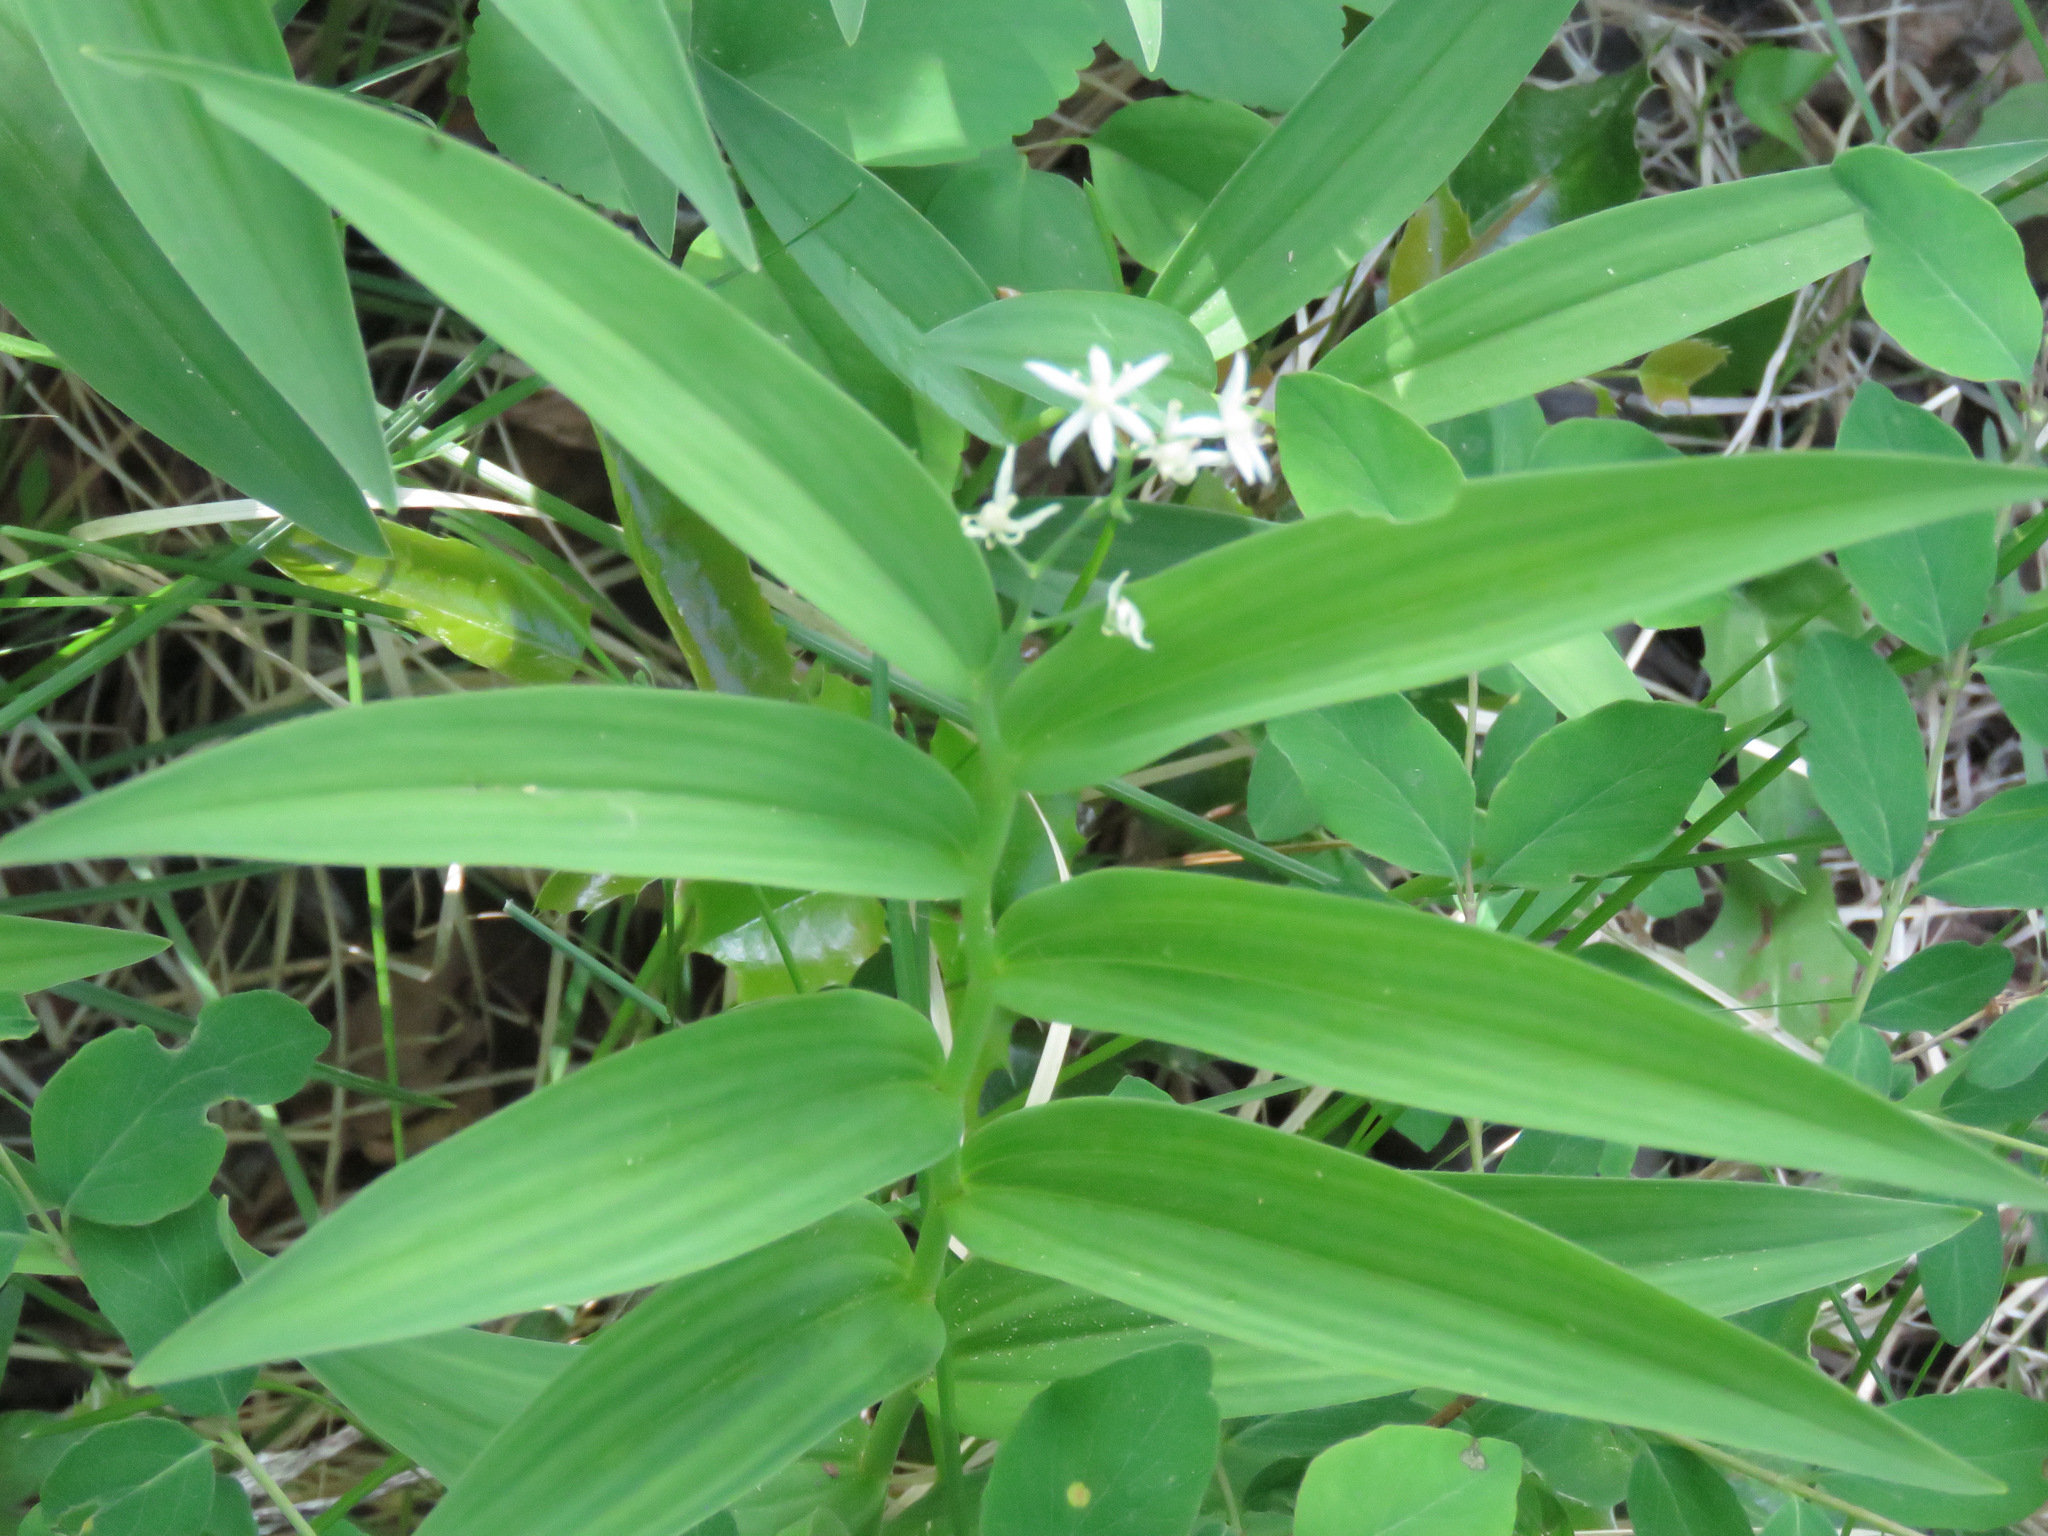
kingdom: Plantae
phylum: Tracheophyta
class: Liliopsida
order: Asparagales
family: Asparagaceae
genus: Maianthemum
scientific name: Maianthemum stellatum
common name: Little false solomon's seal
